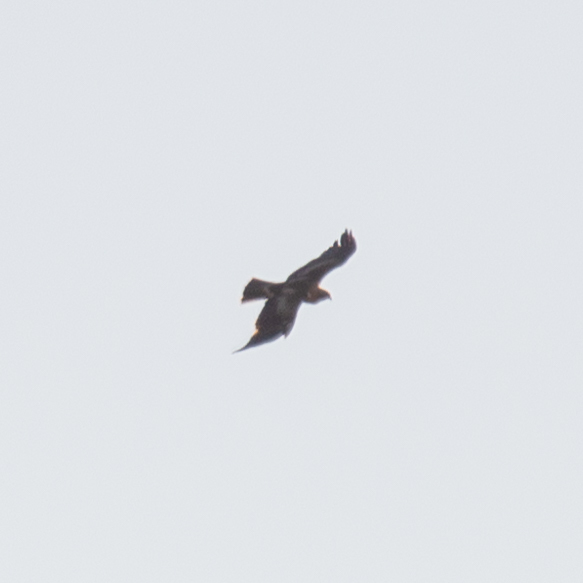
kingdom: Animalia
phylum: Chordata
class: Aves
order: Accipitriformes
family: Accipitridae
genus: Hieraaetus
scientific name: Hieraaetus pennatus
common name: Booted eagle
